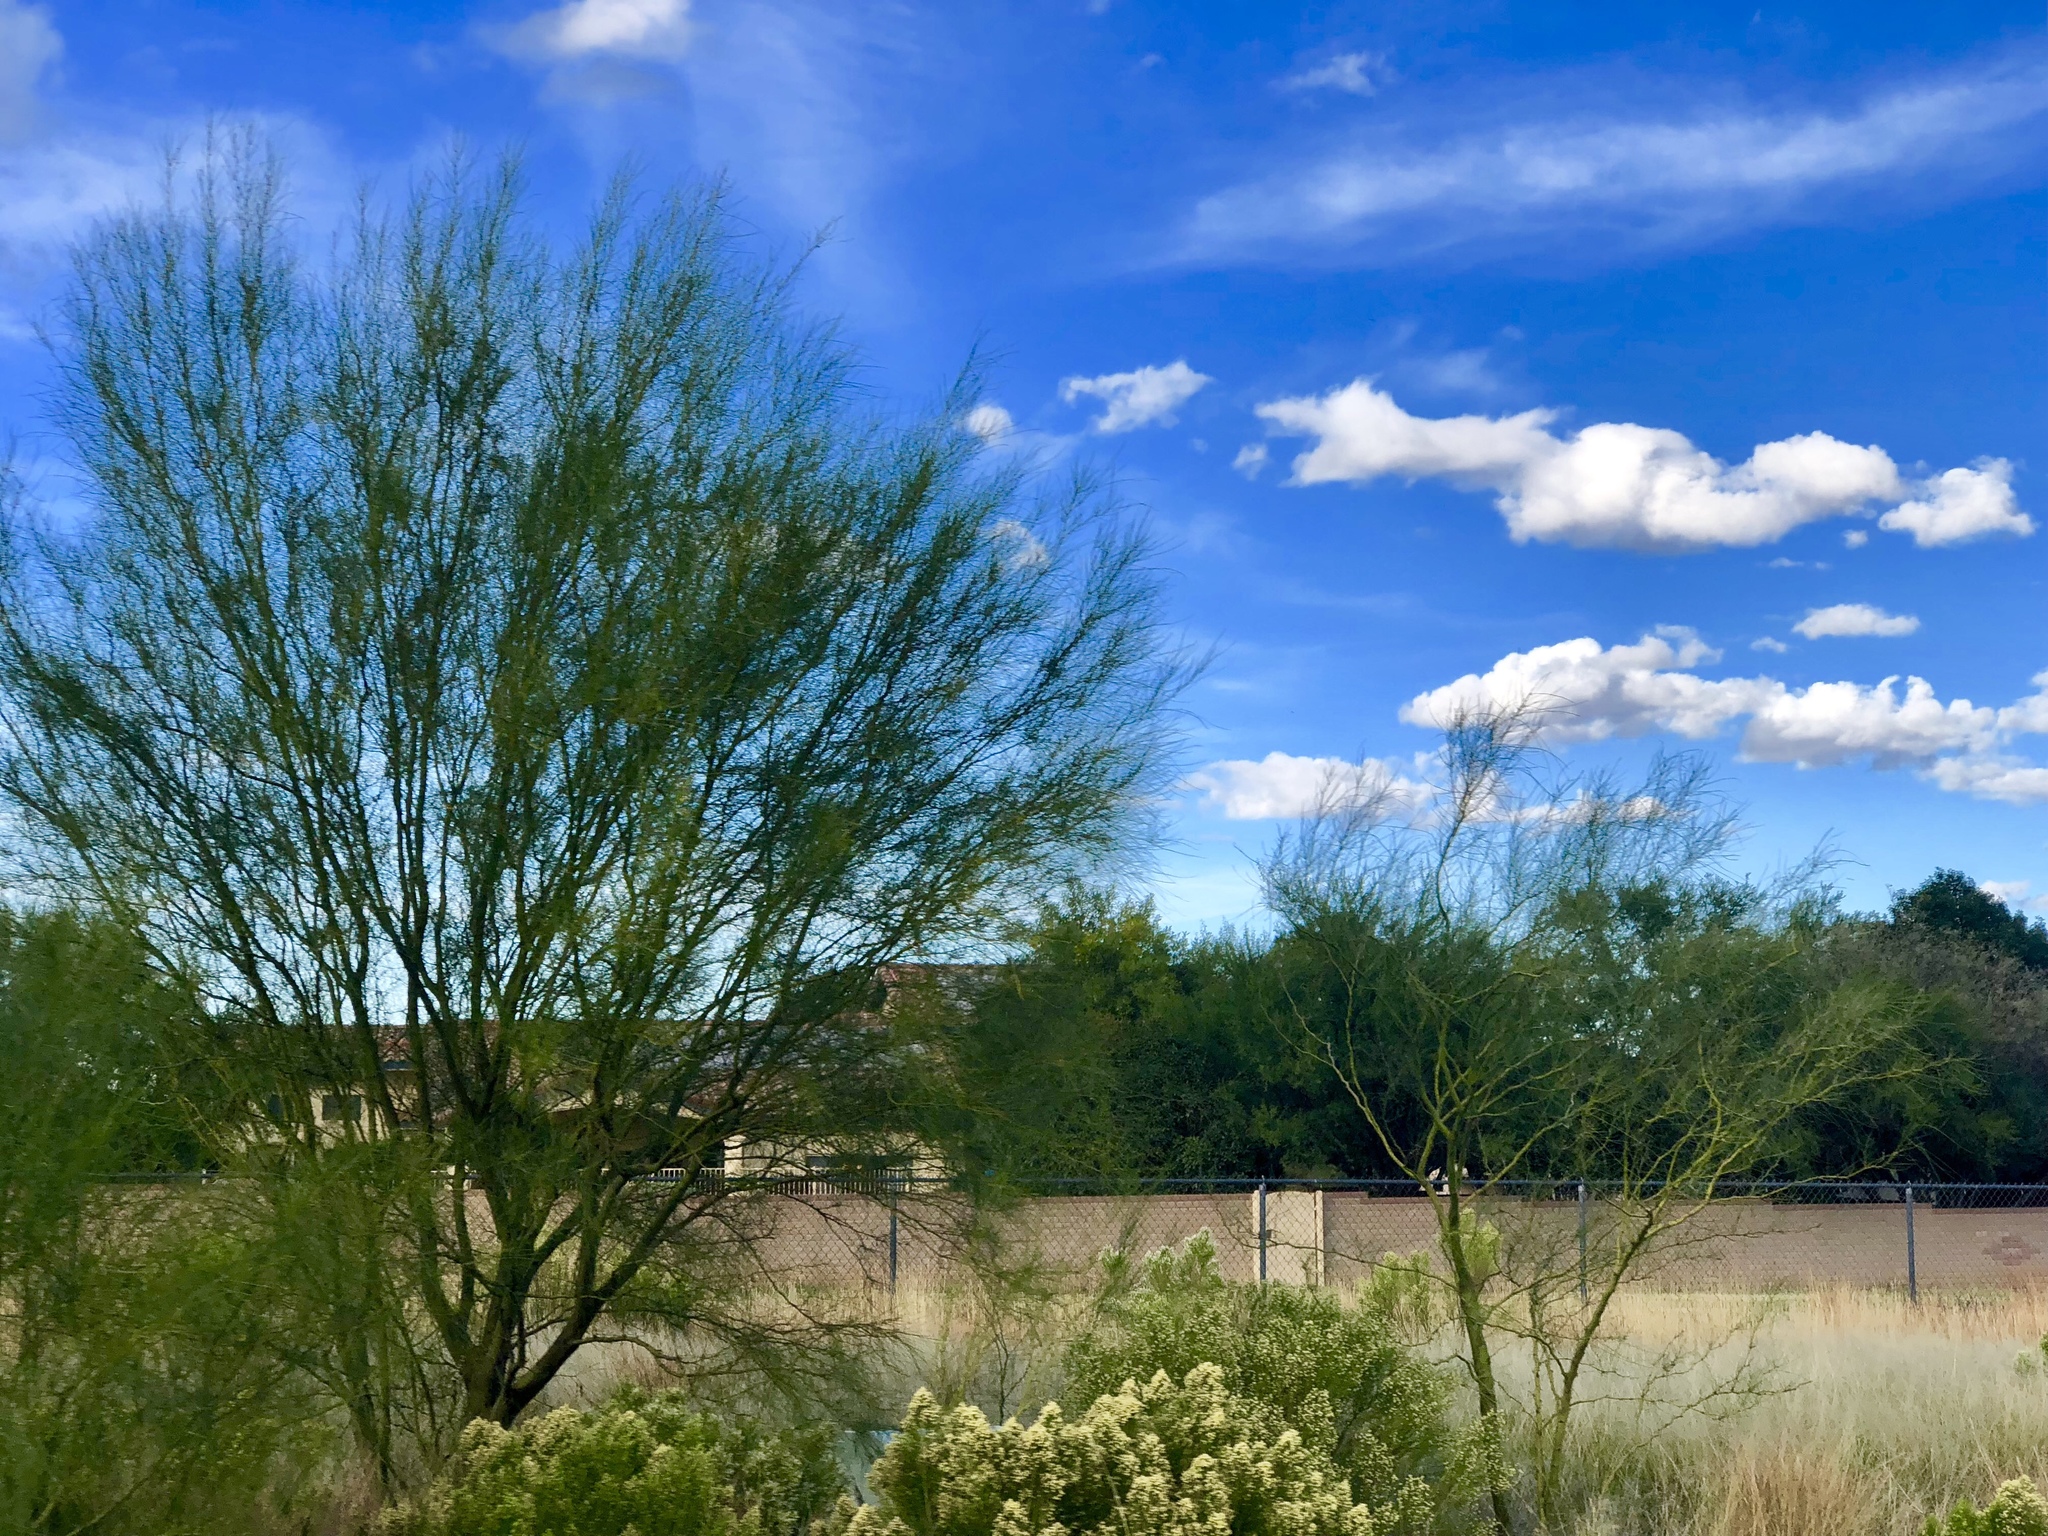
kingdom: Plantae
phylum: Tracheophyta
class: Magnoliopsida
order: Fabales
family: Fabaceae
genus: Parkinsonia
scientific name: Parkinsonia aculeata
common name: Jerusalem thorn
